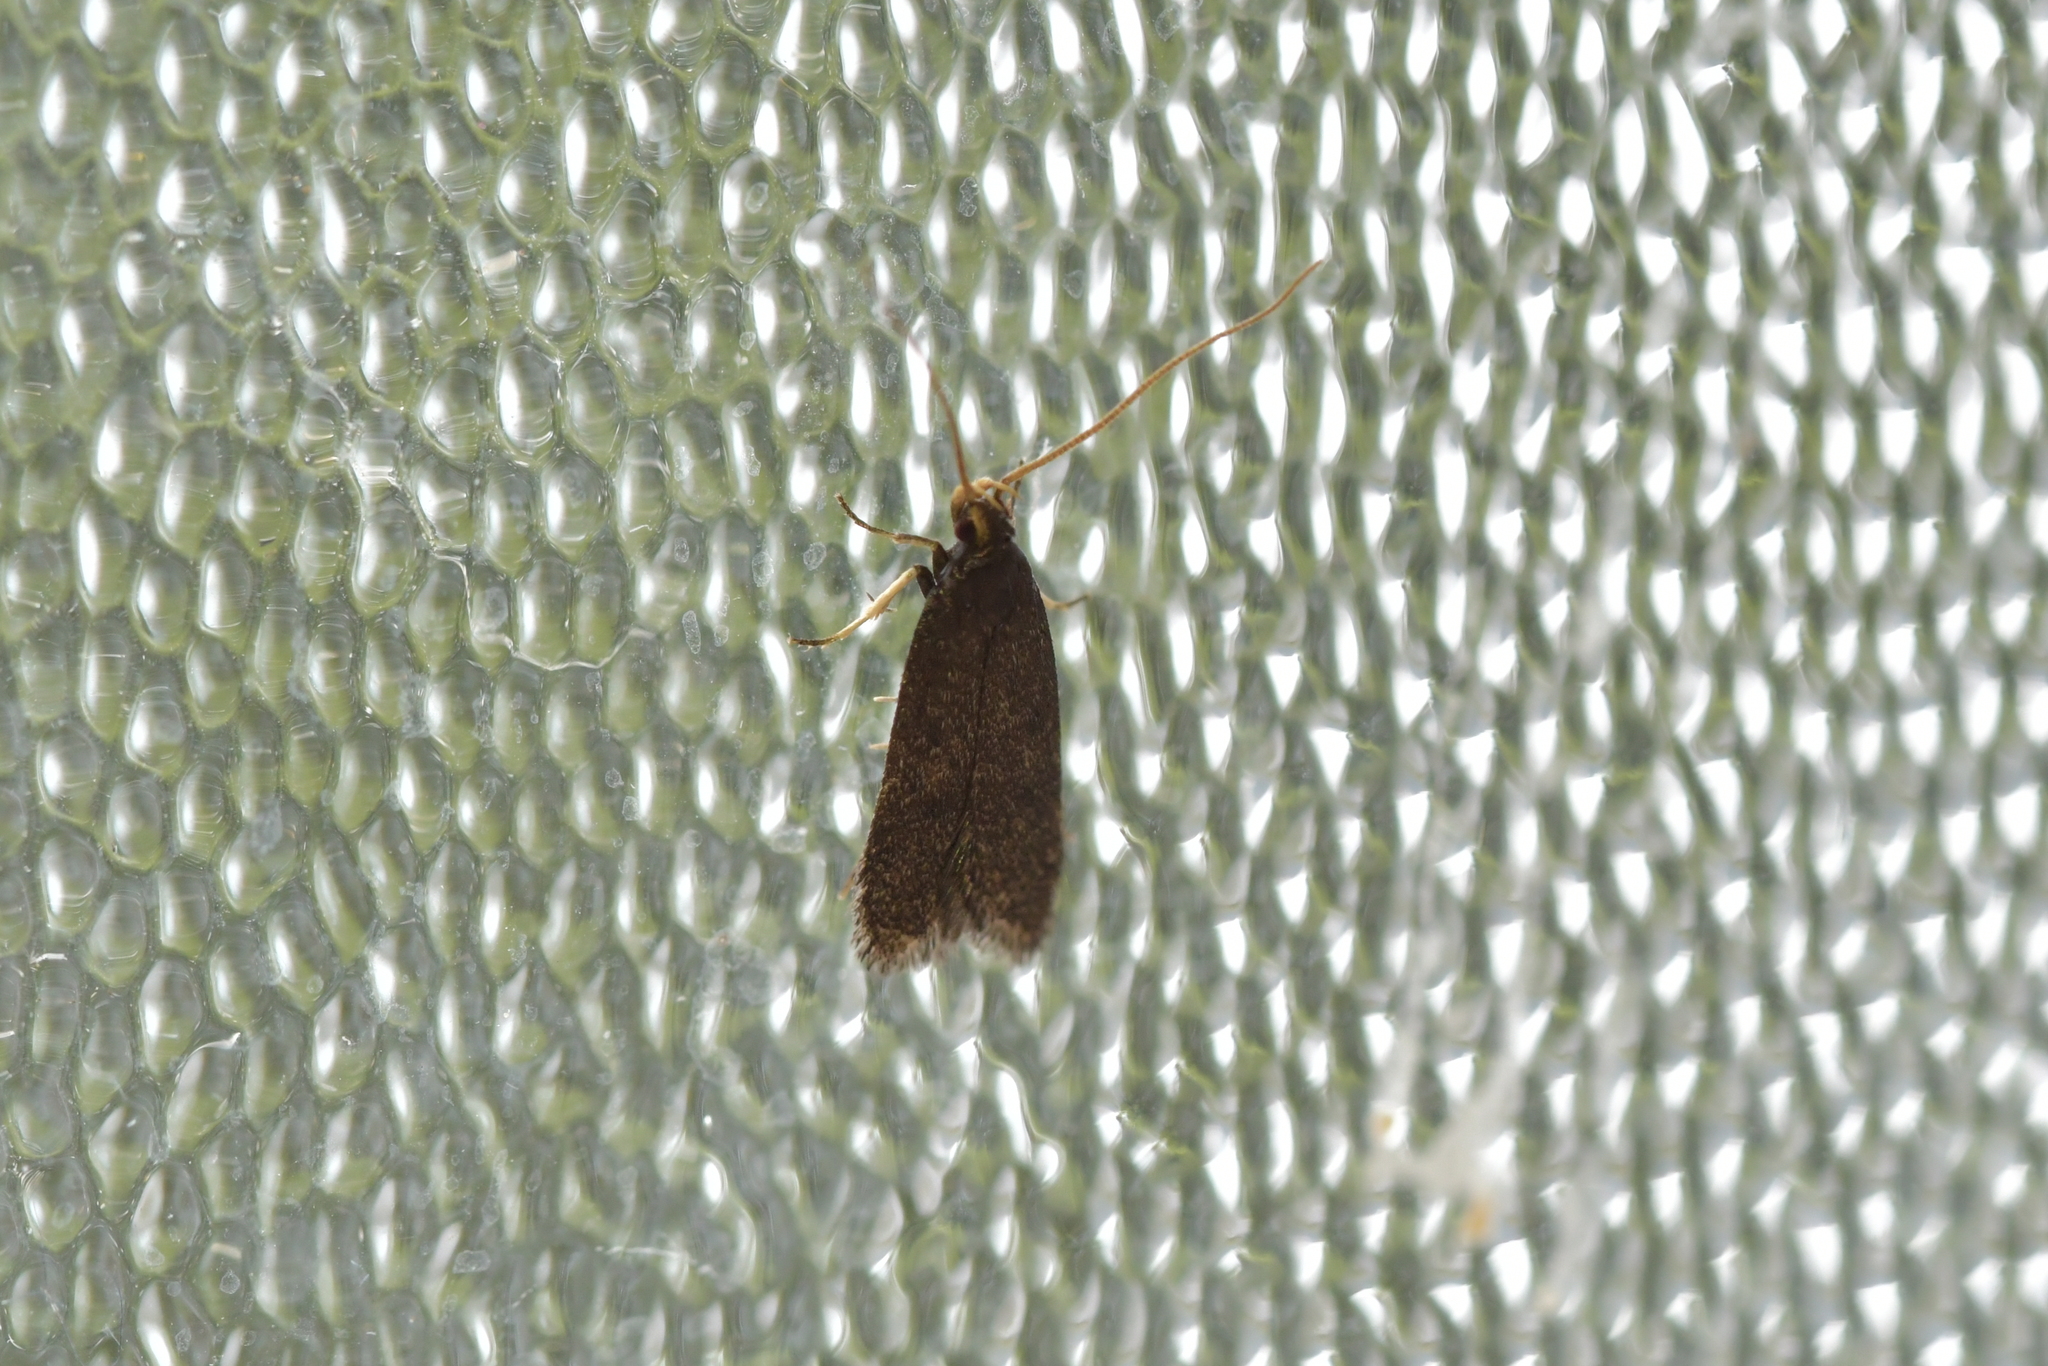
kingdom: Animalia
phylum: Arthropoda
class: Insecta
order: Lepidoptera
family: Lecithoceridae
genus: Lecithocera
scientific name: Lecithocera micromela
